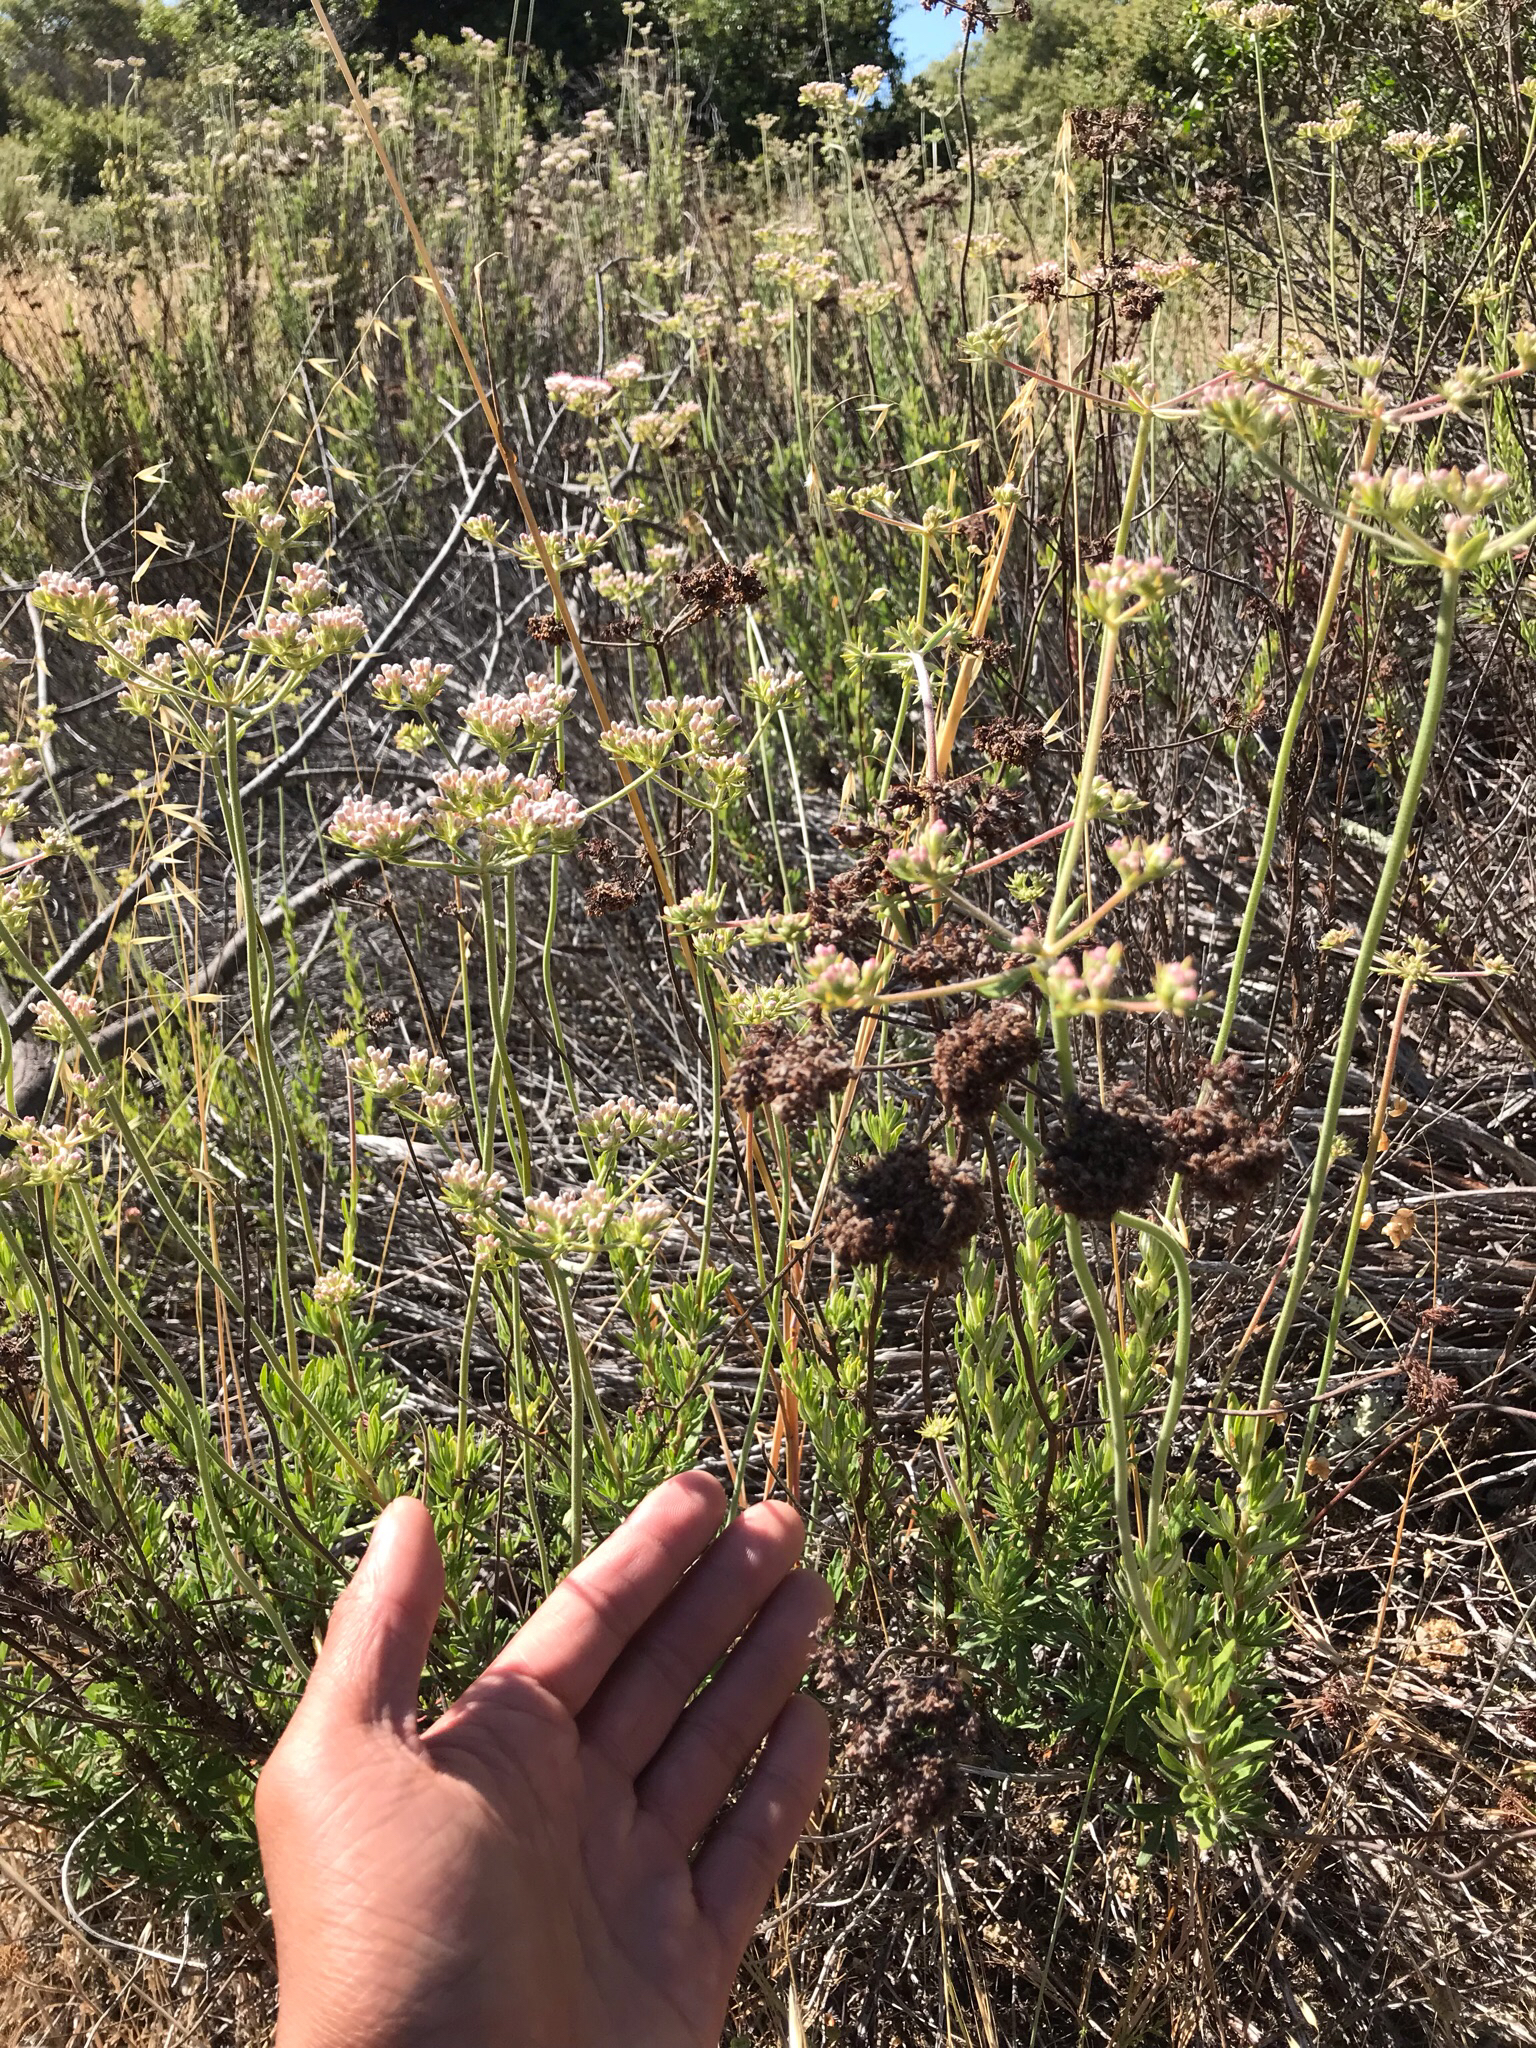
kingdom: Plantae
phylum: Tracheophyta
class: Magnoliopsida
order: Caryophyllales
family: Polygonaceae
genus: Eriogonum
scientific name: Eriogonum fasciculatum
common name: California wild buckwheat
